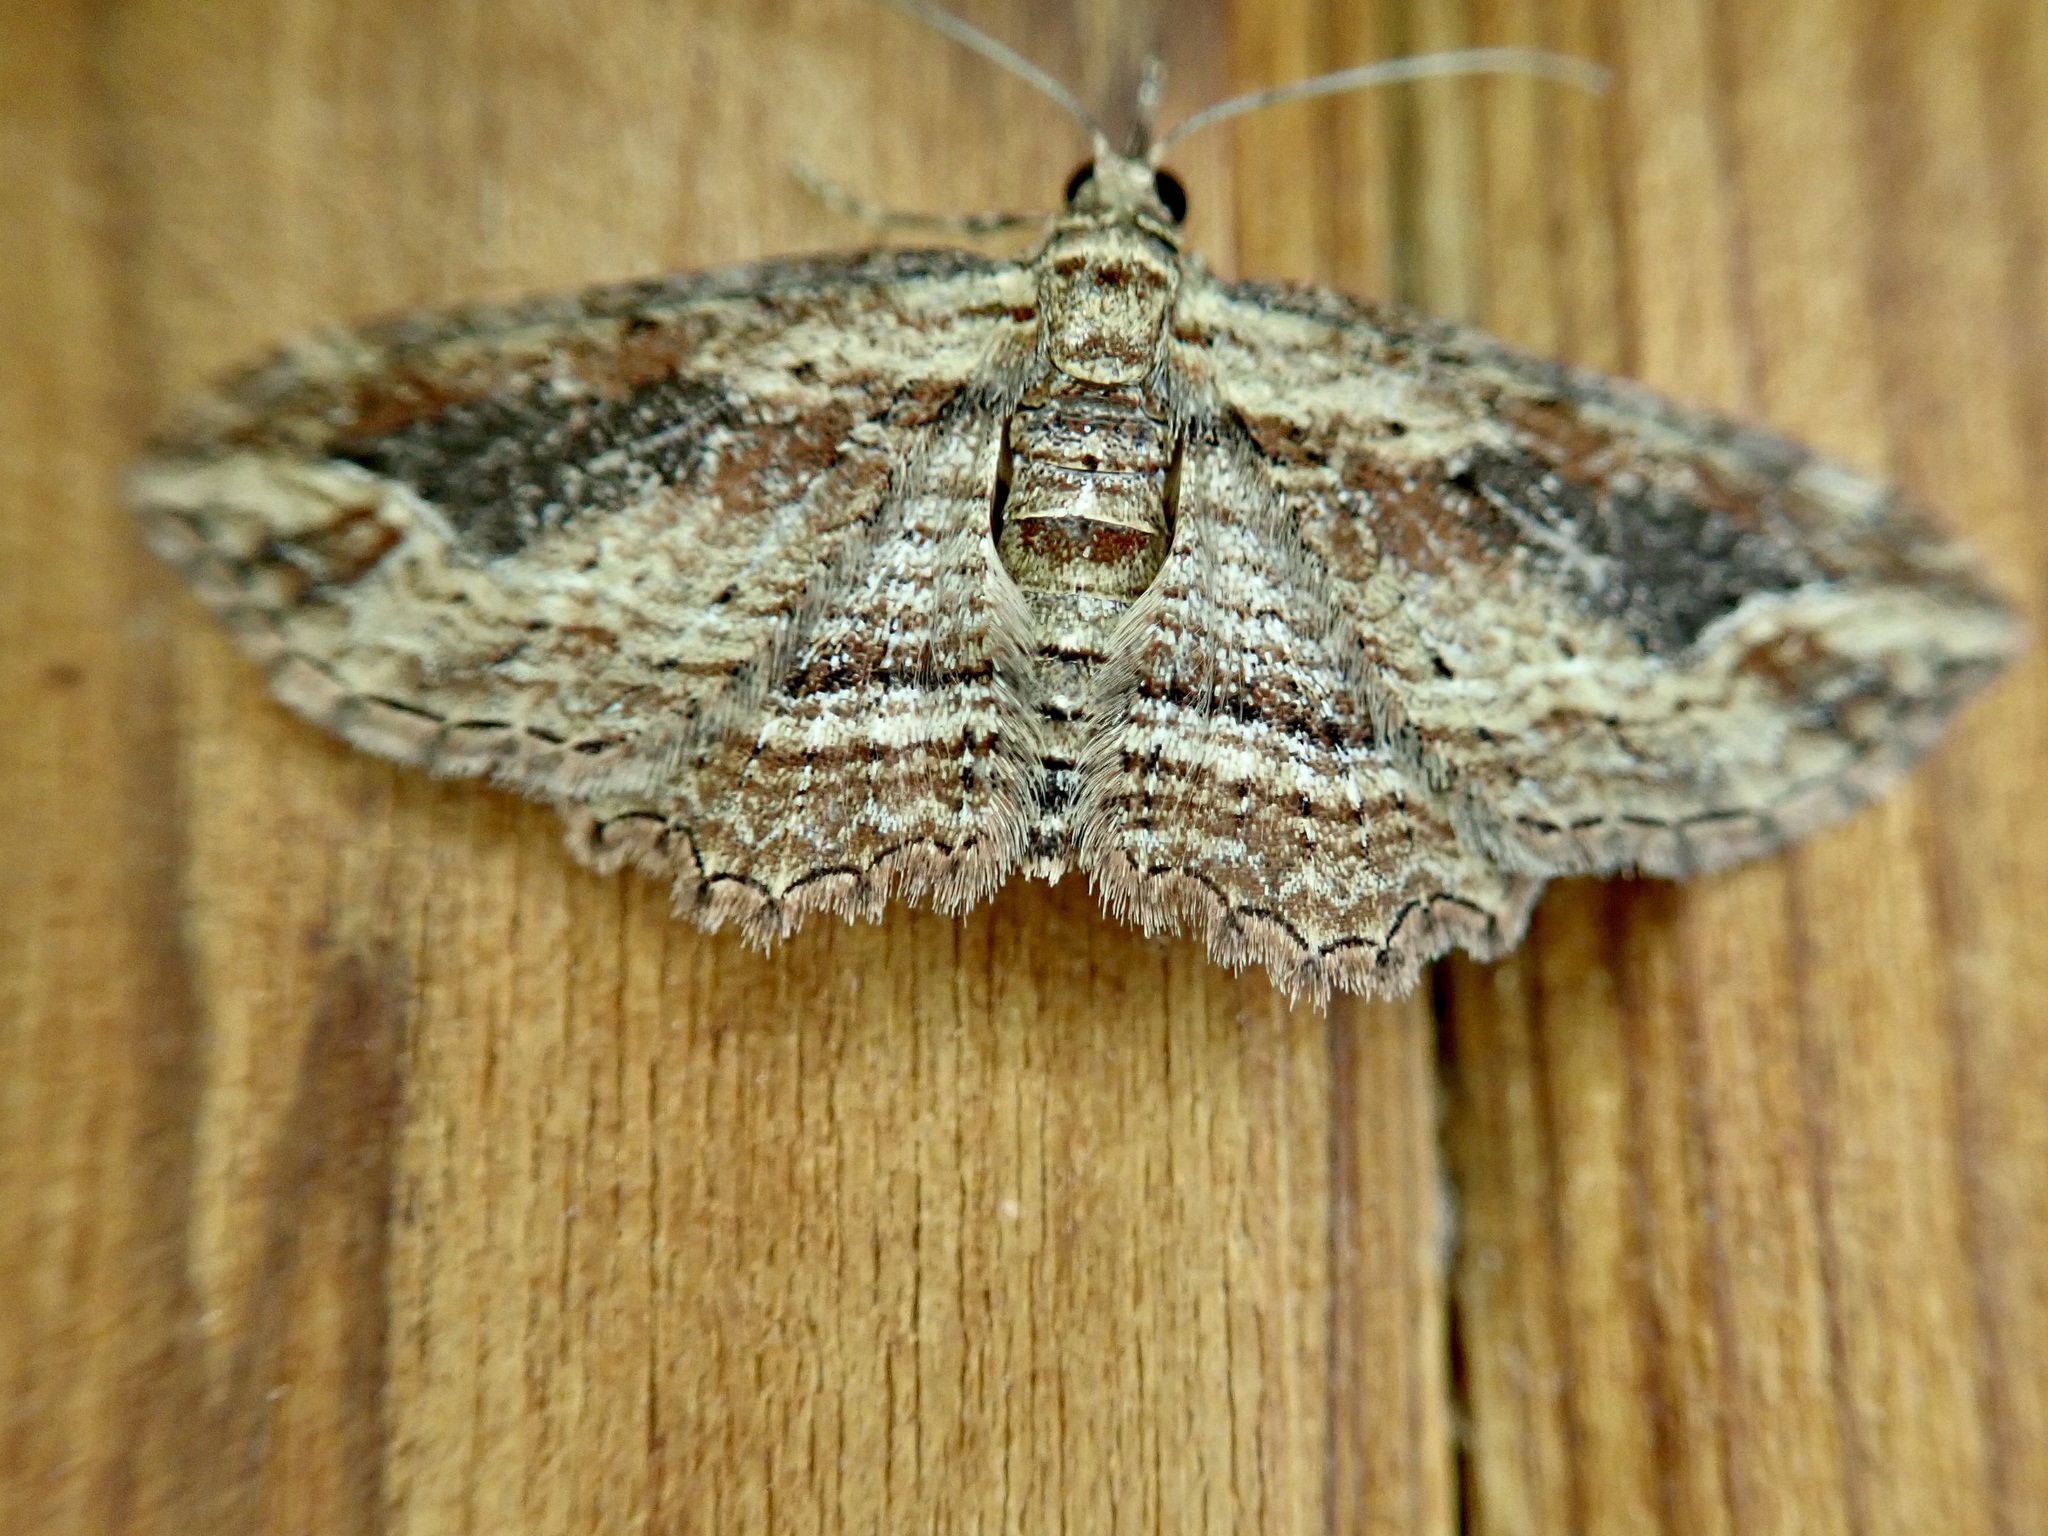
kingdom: Animalia
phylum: Arthropoda
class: Insecta
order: Lepidoptera
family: Geometridae
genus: Chloroclystis
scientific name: Chloroclystis filata
